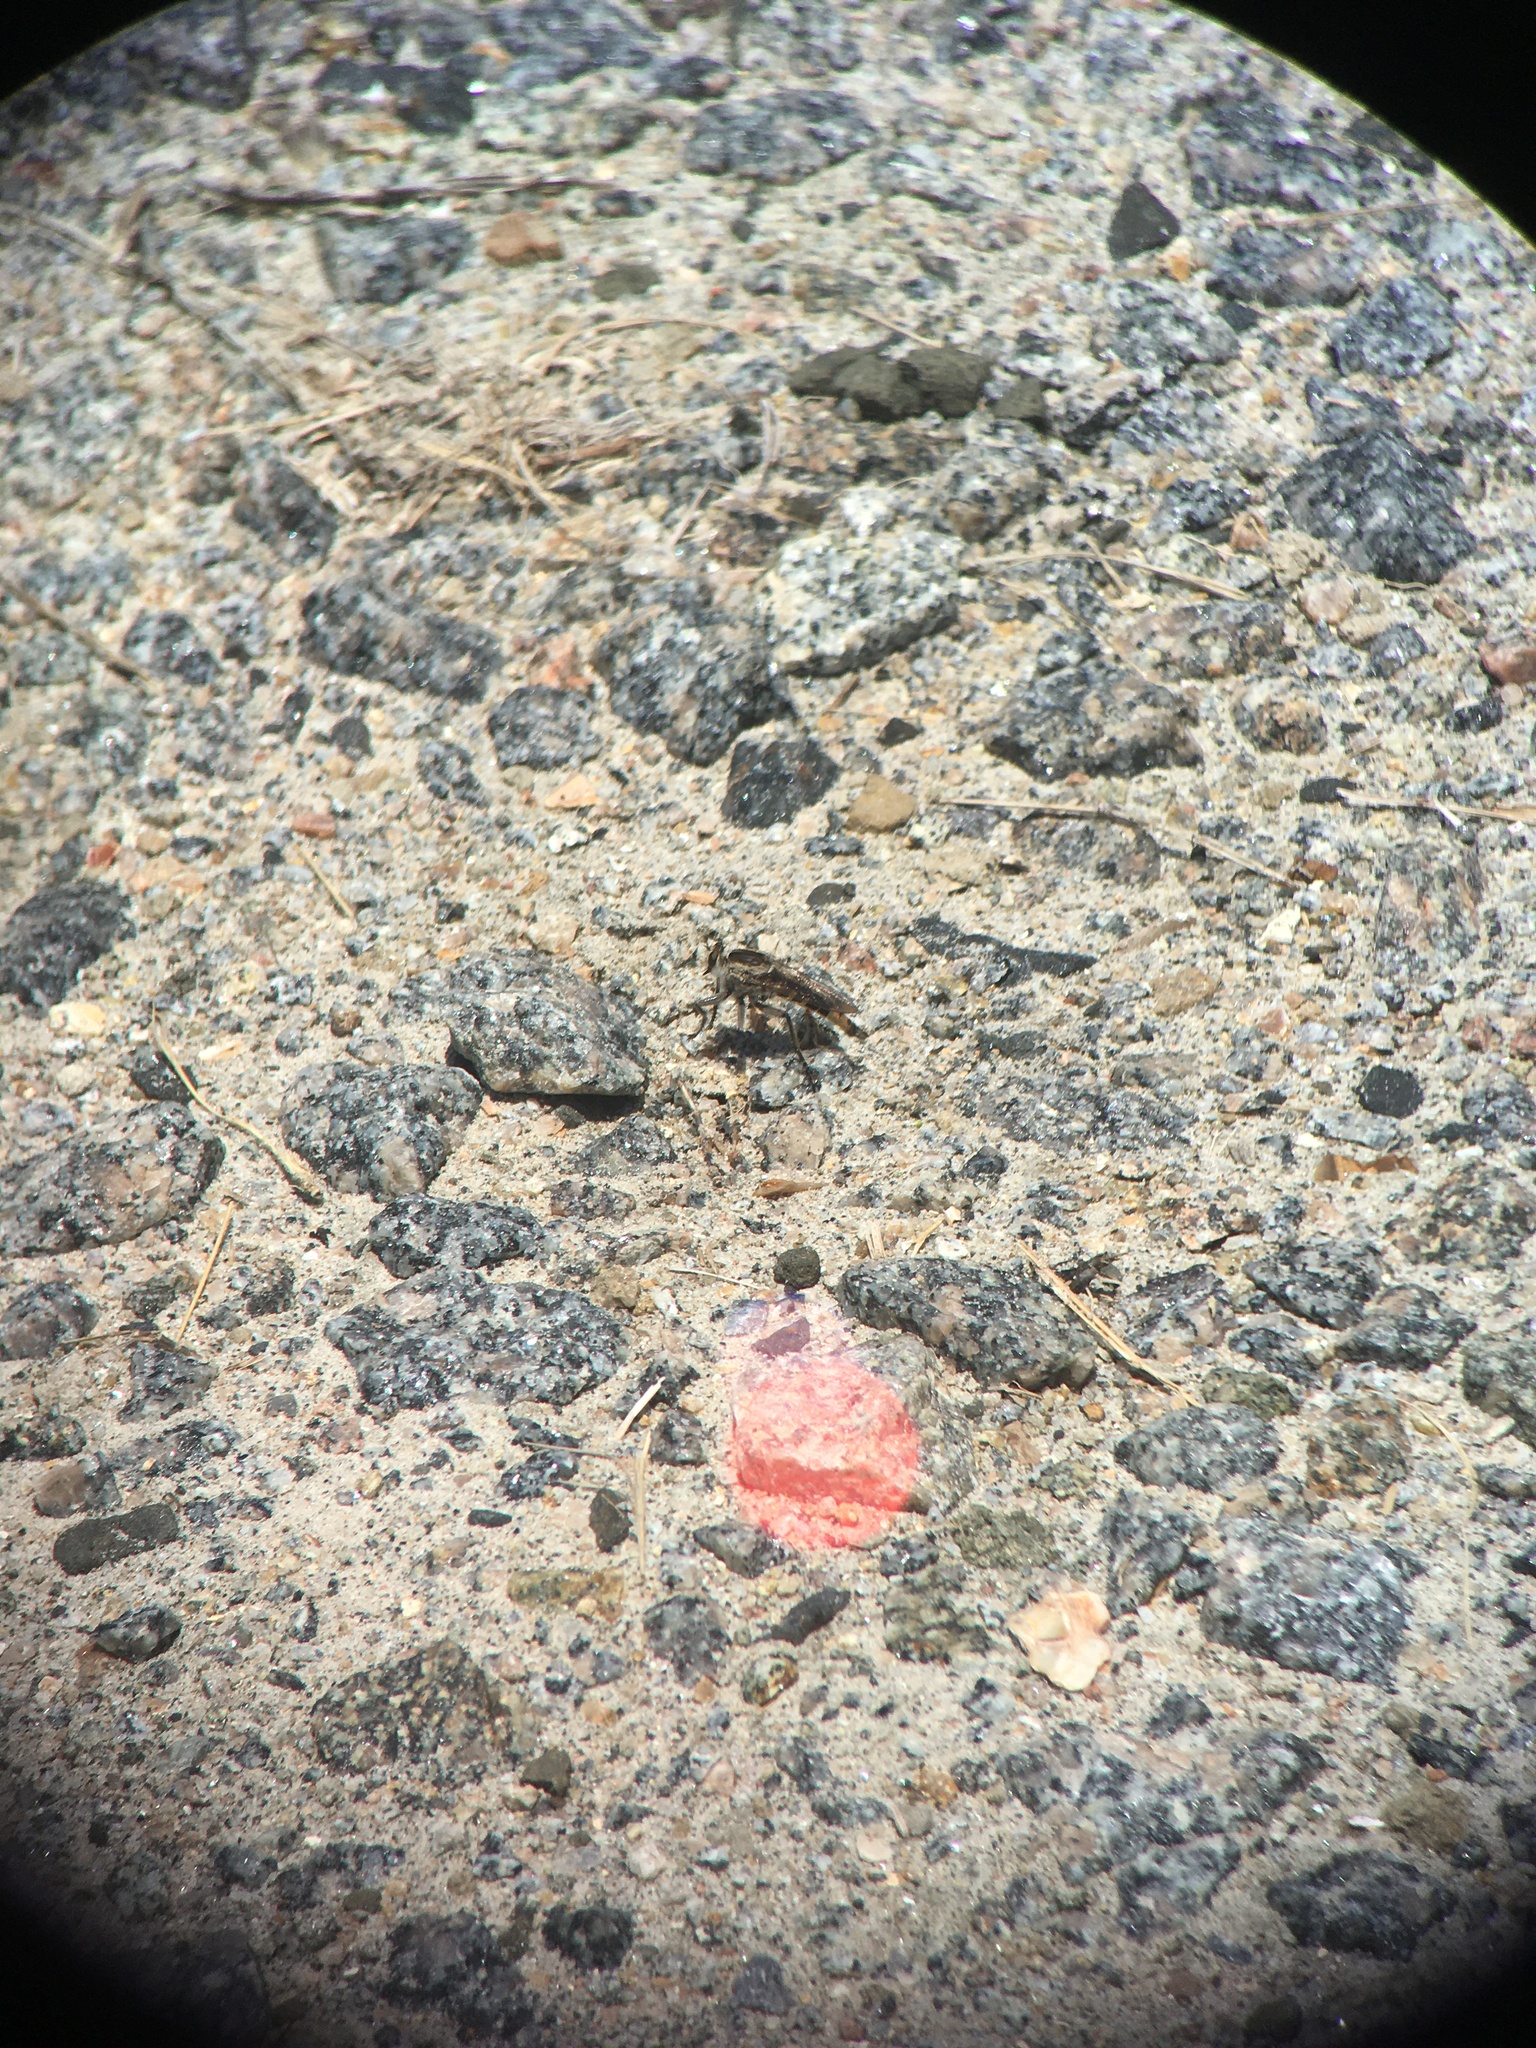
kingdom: Animalia
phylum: Arthropoda
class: Insecta
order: Diptera
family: Asilidae
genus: Triorla
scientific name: Triorla interrupta
